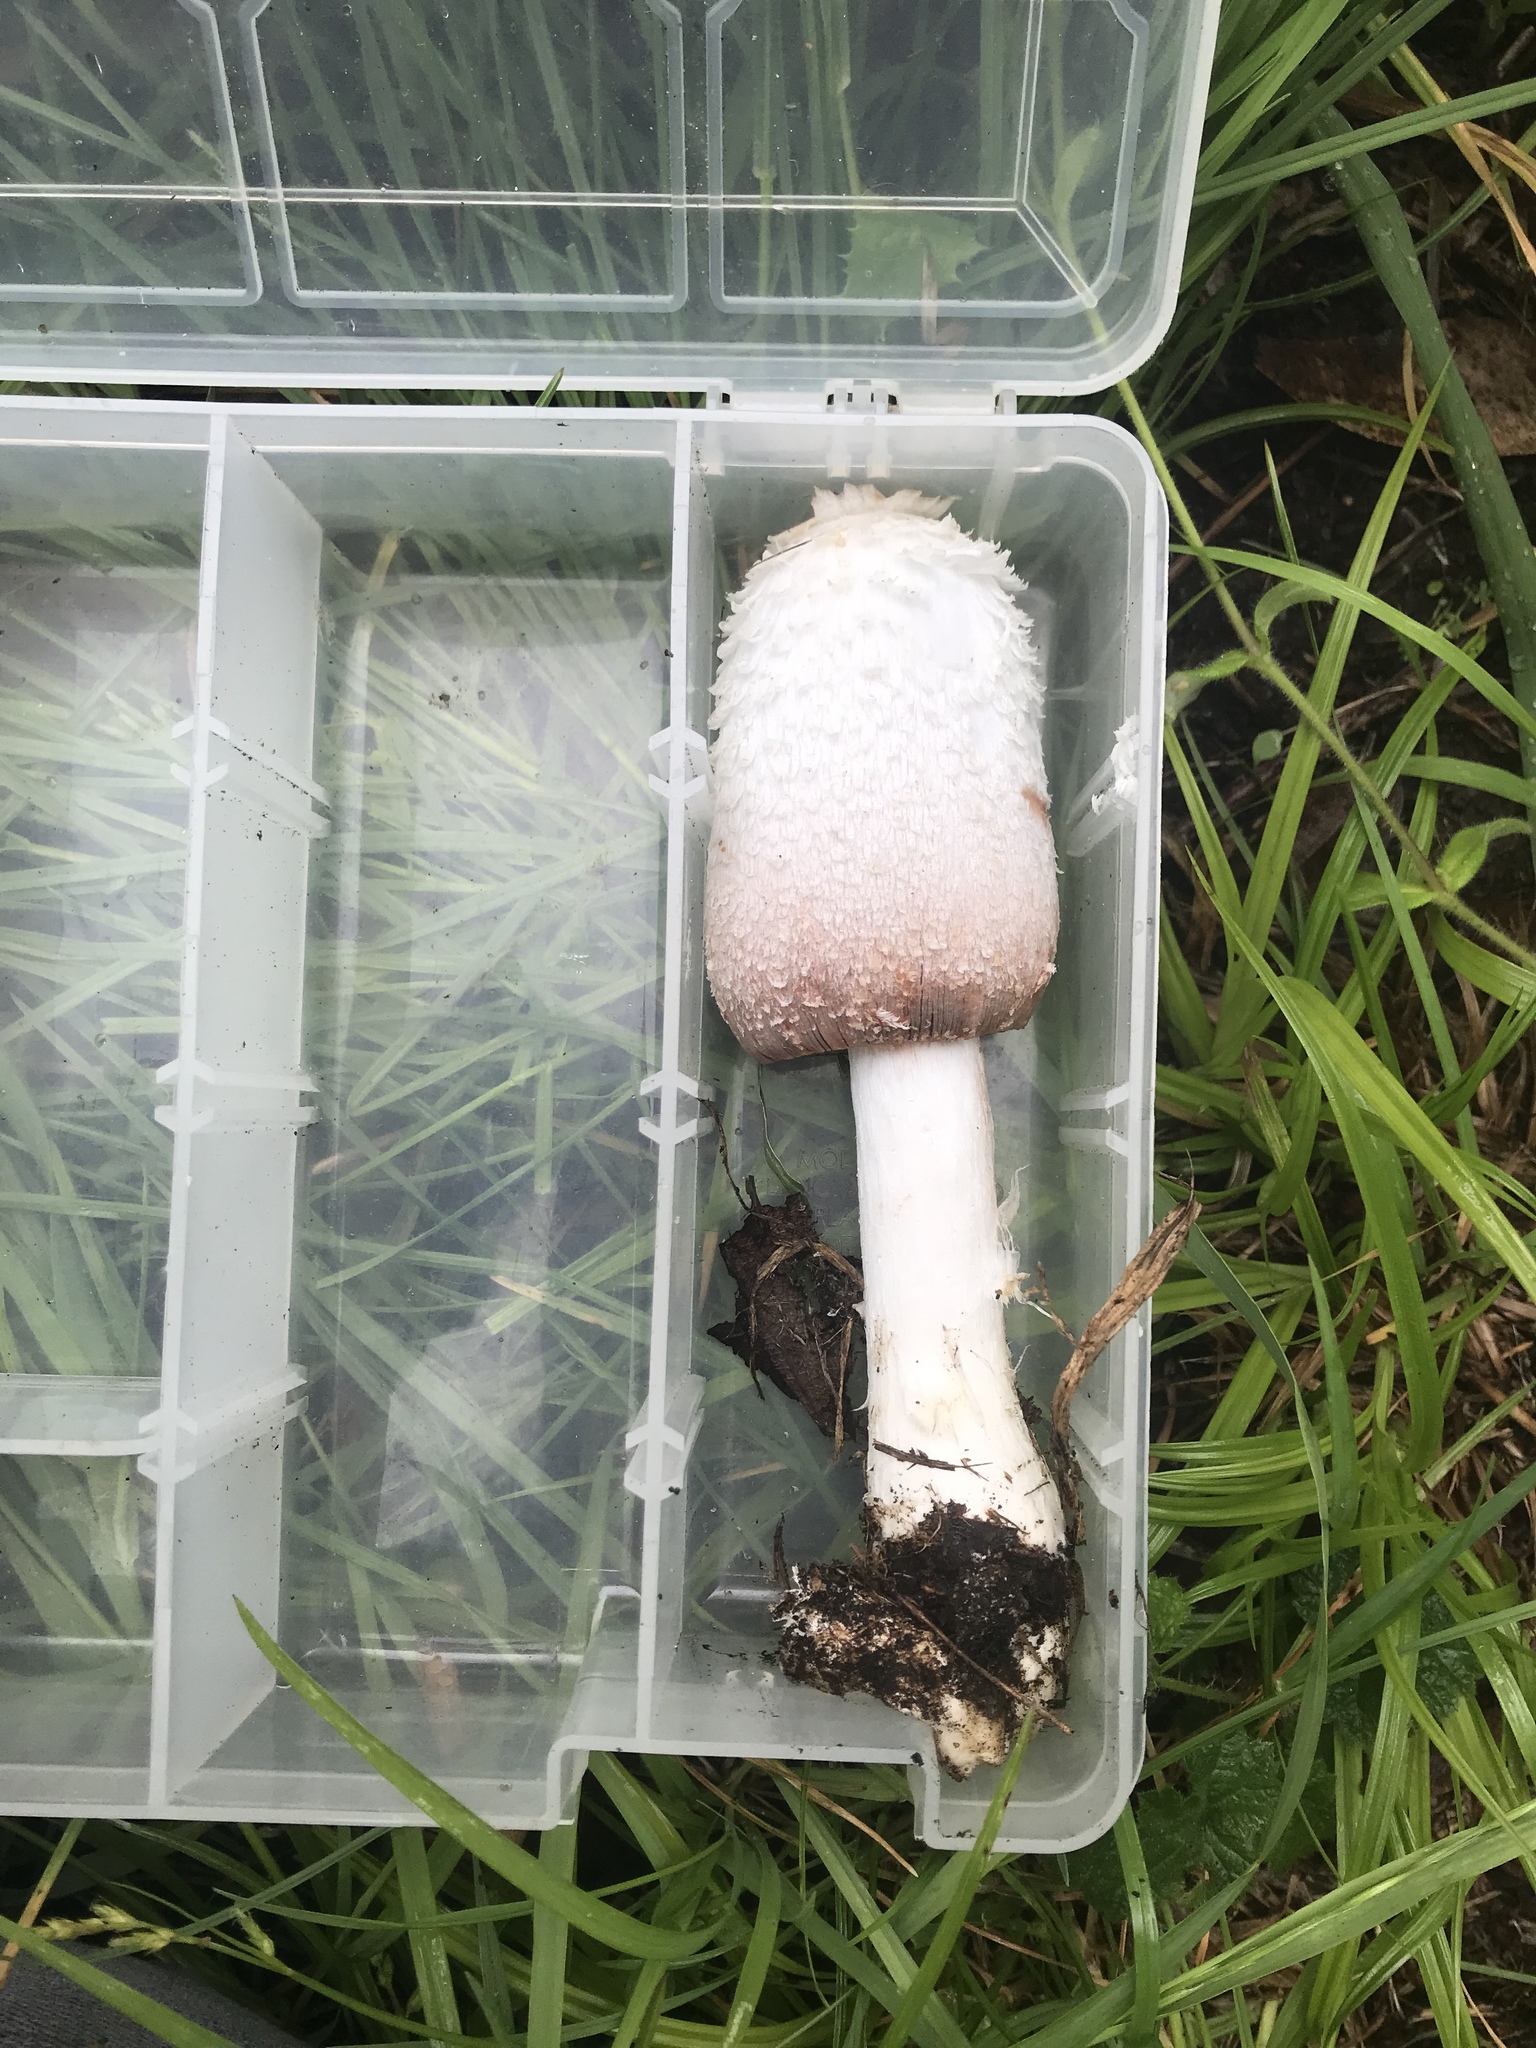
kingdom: Fungi
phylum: Basidiomycota
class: Agaricomycetes
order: Agaricales
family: Agaricaceae
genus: Coprinus
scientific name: Coprinus colosseus
